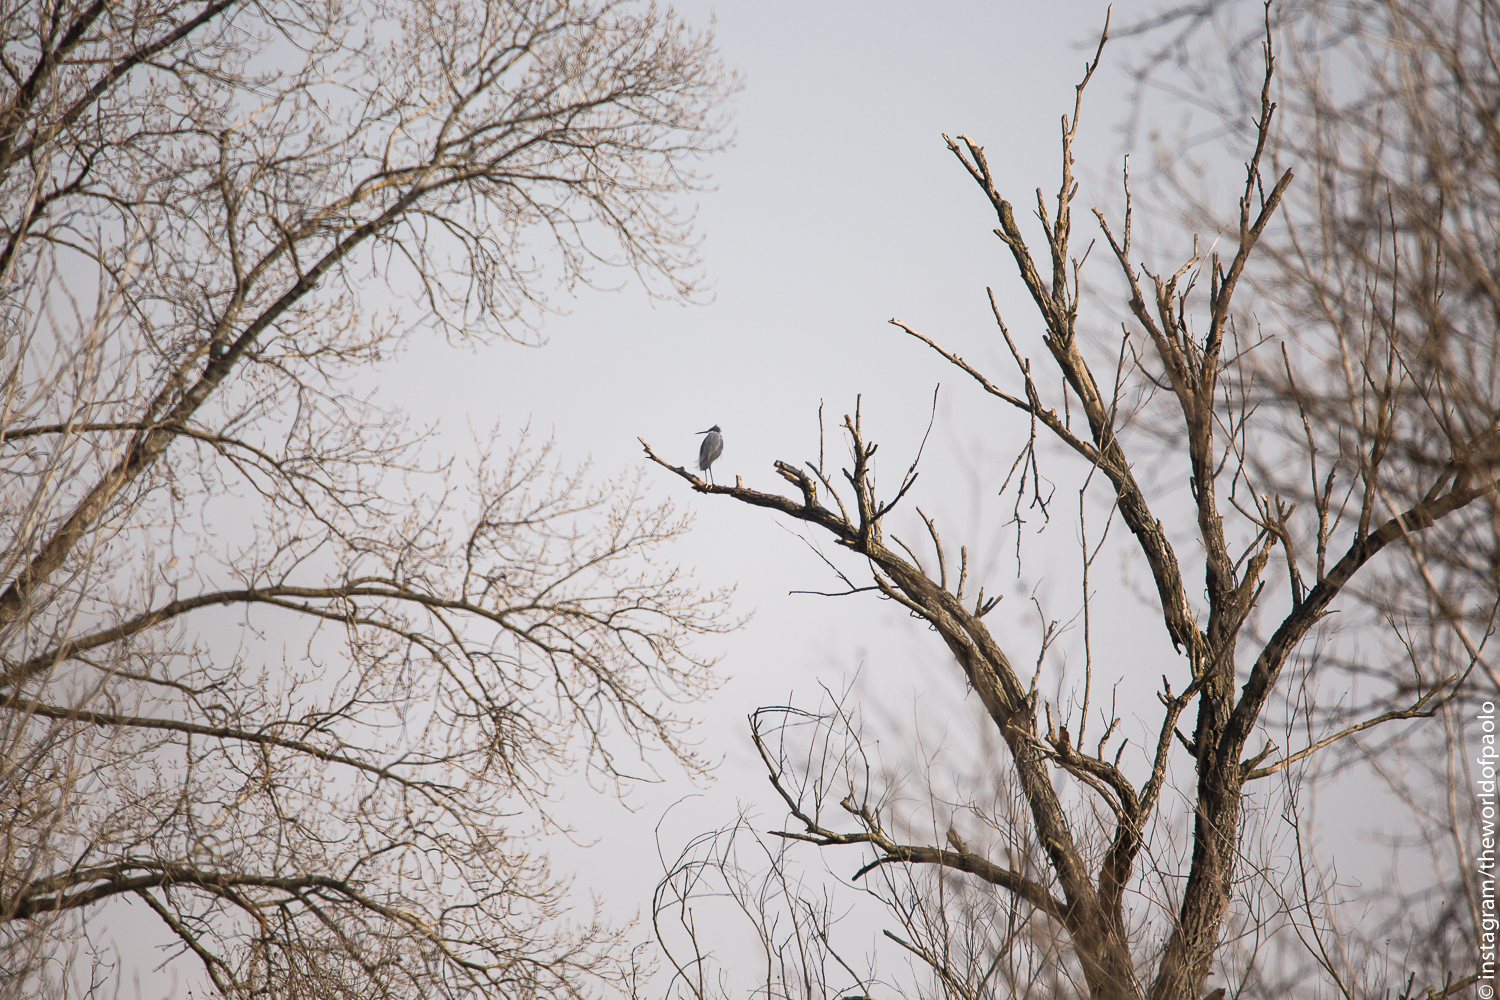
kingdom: Animalia
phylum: Chordata
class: Aves
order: Pelecaniformes
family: Ardeidae
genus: Egretta
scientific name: Egretta gularis
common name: Western reef-heron
